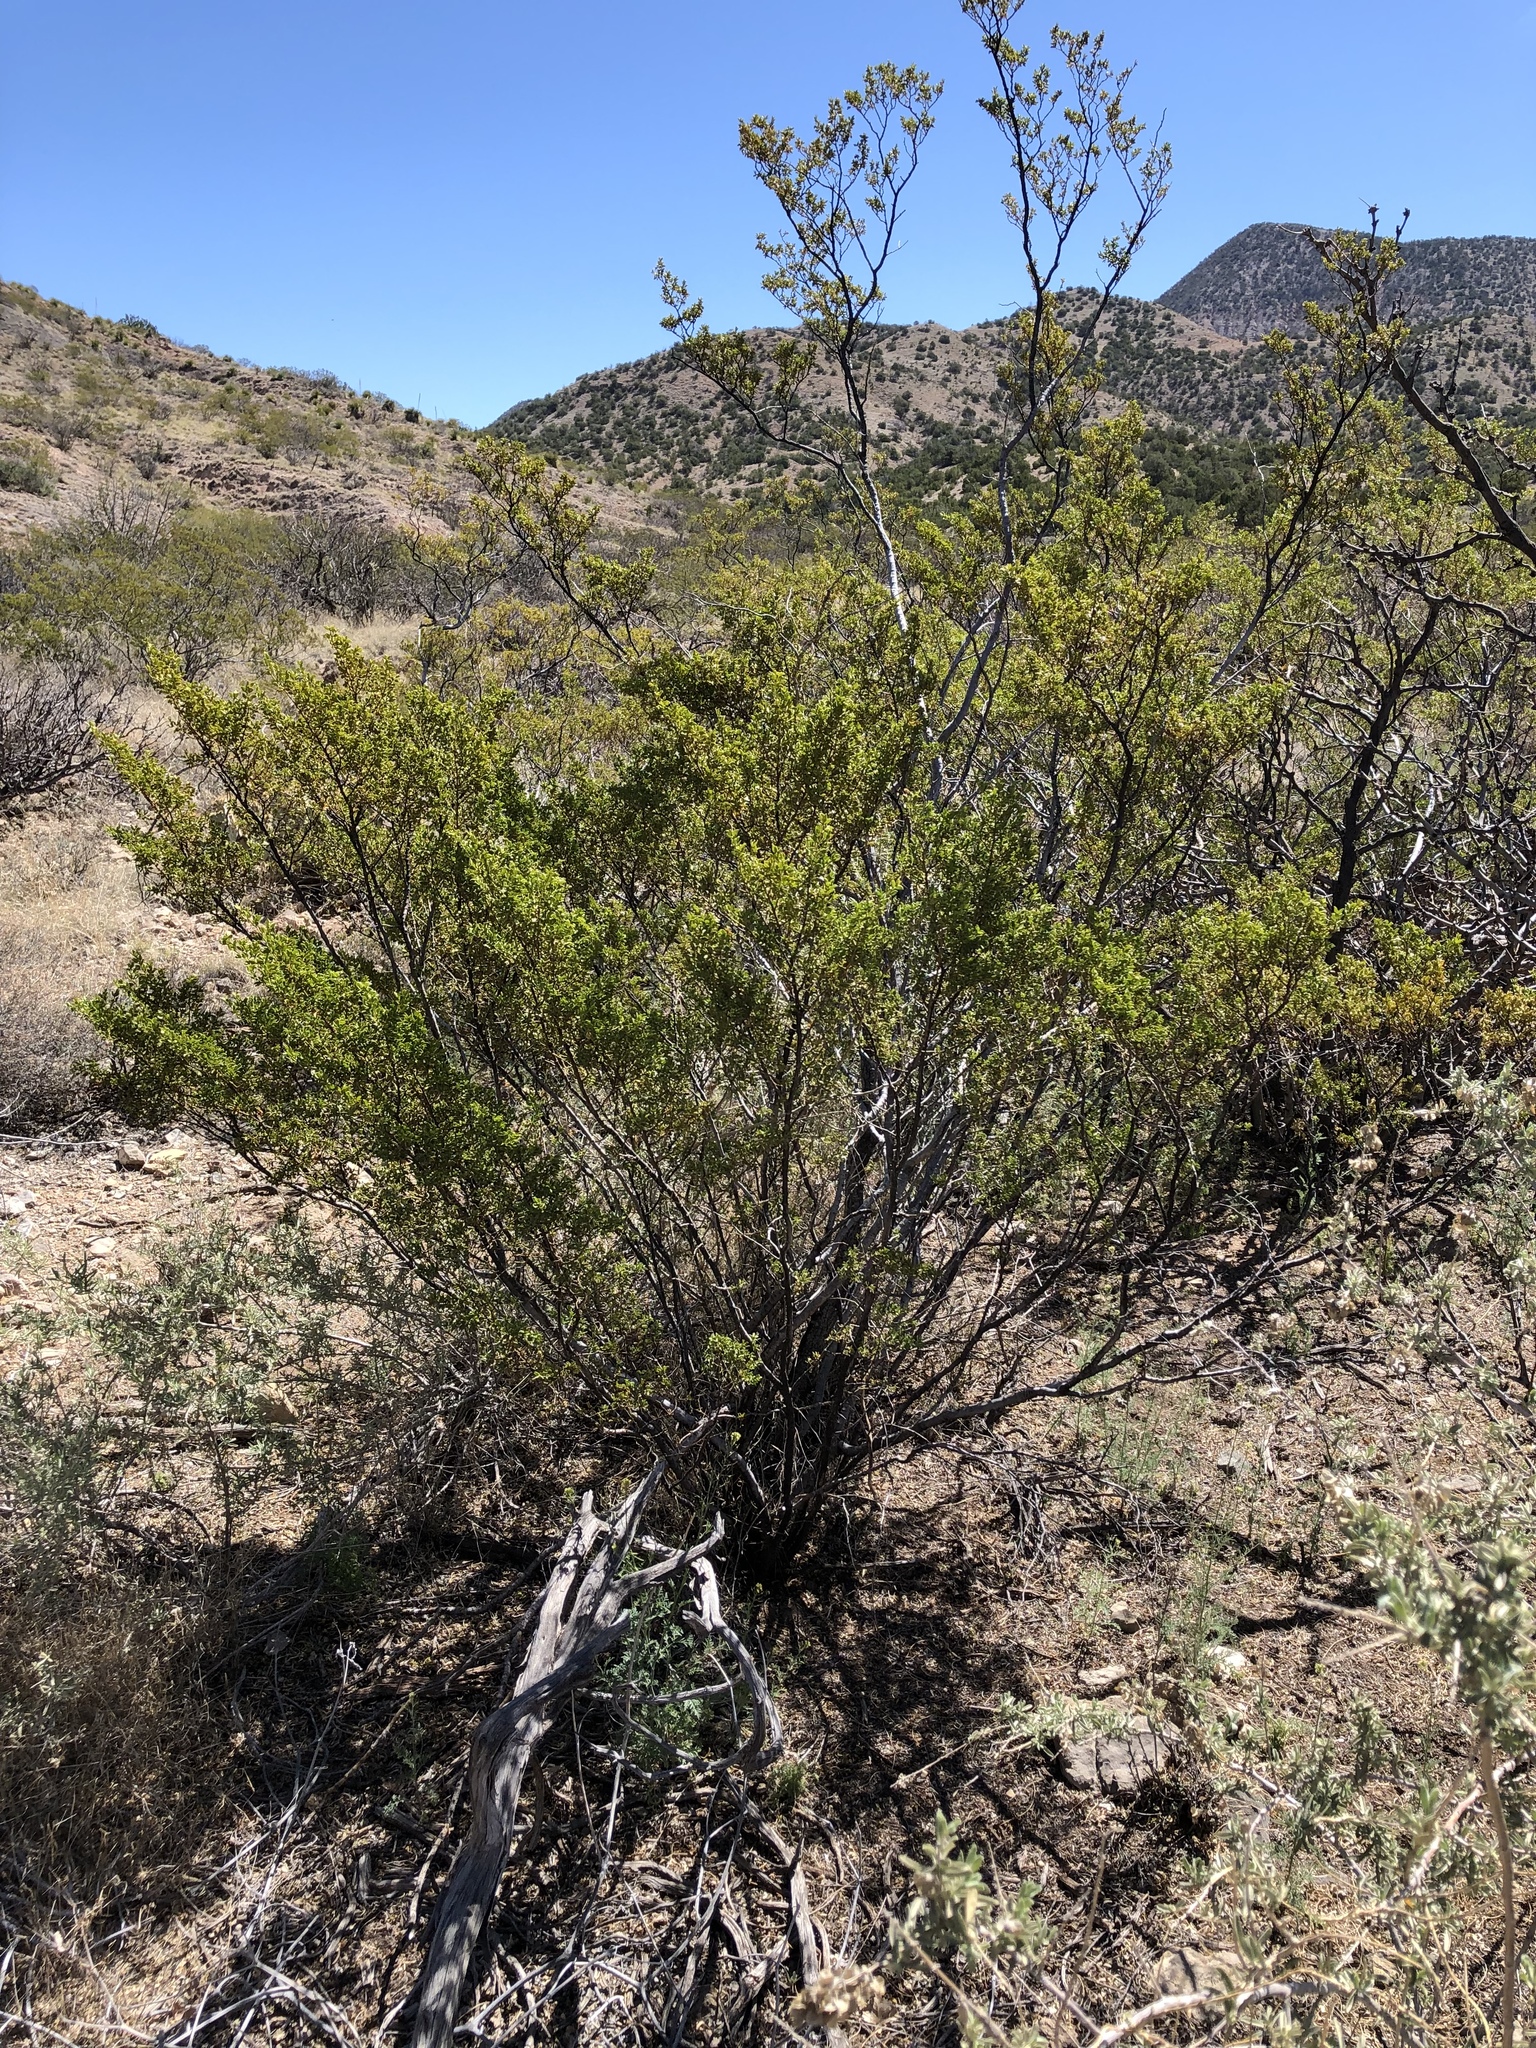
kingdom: Plantae
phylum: Tracheophyta
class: Magnoliopsida
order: Zygophyllales
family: Zygophyllaceae
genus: Larrea
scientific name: Larrea tridentata
